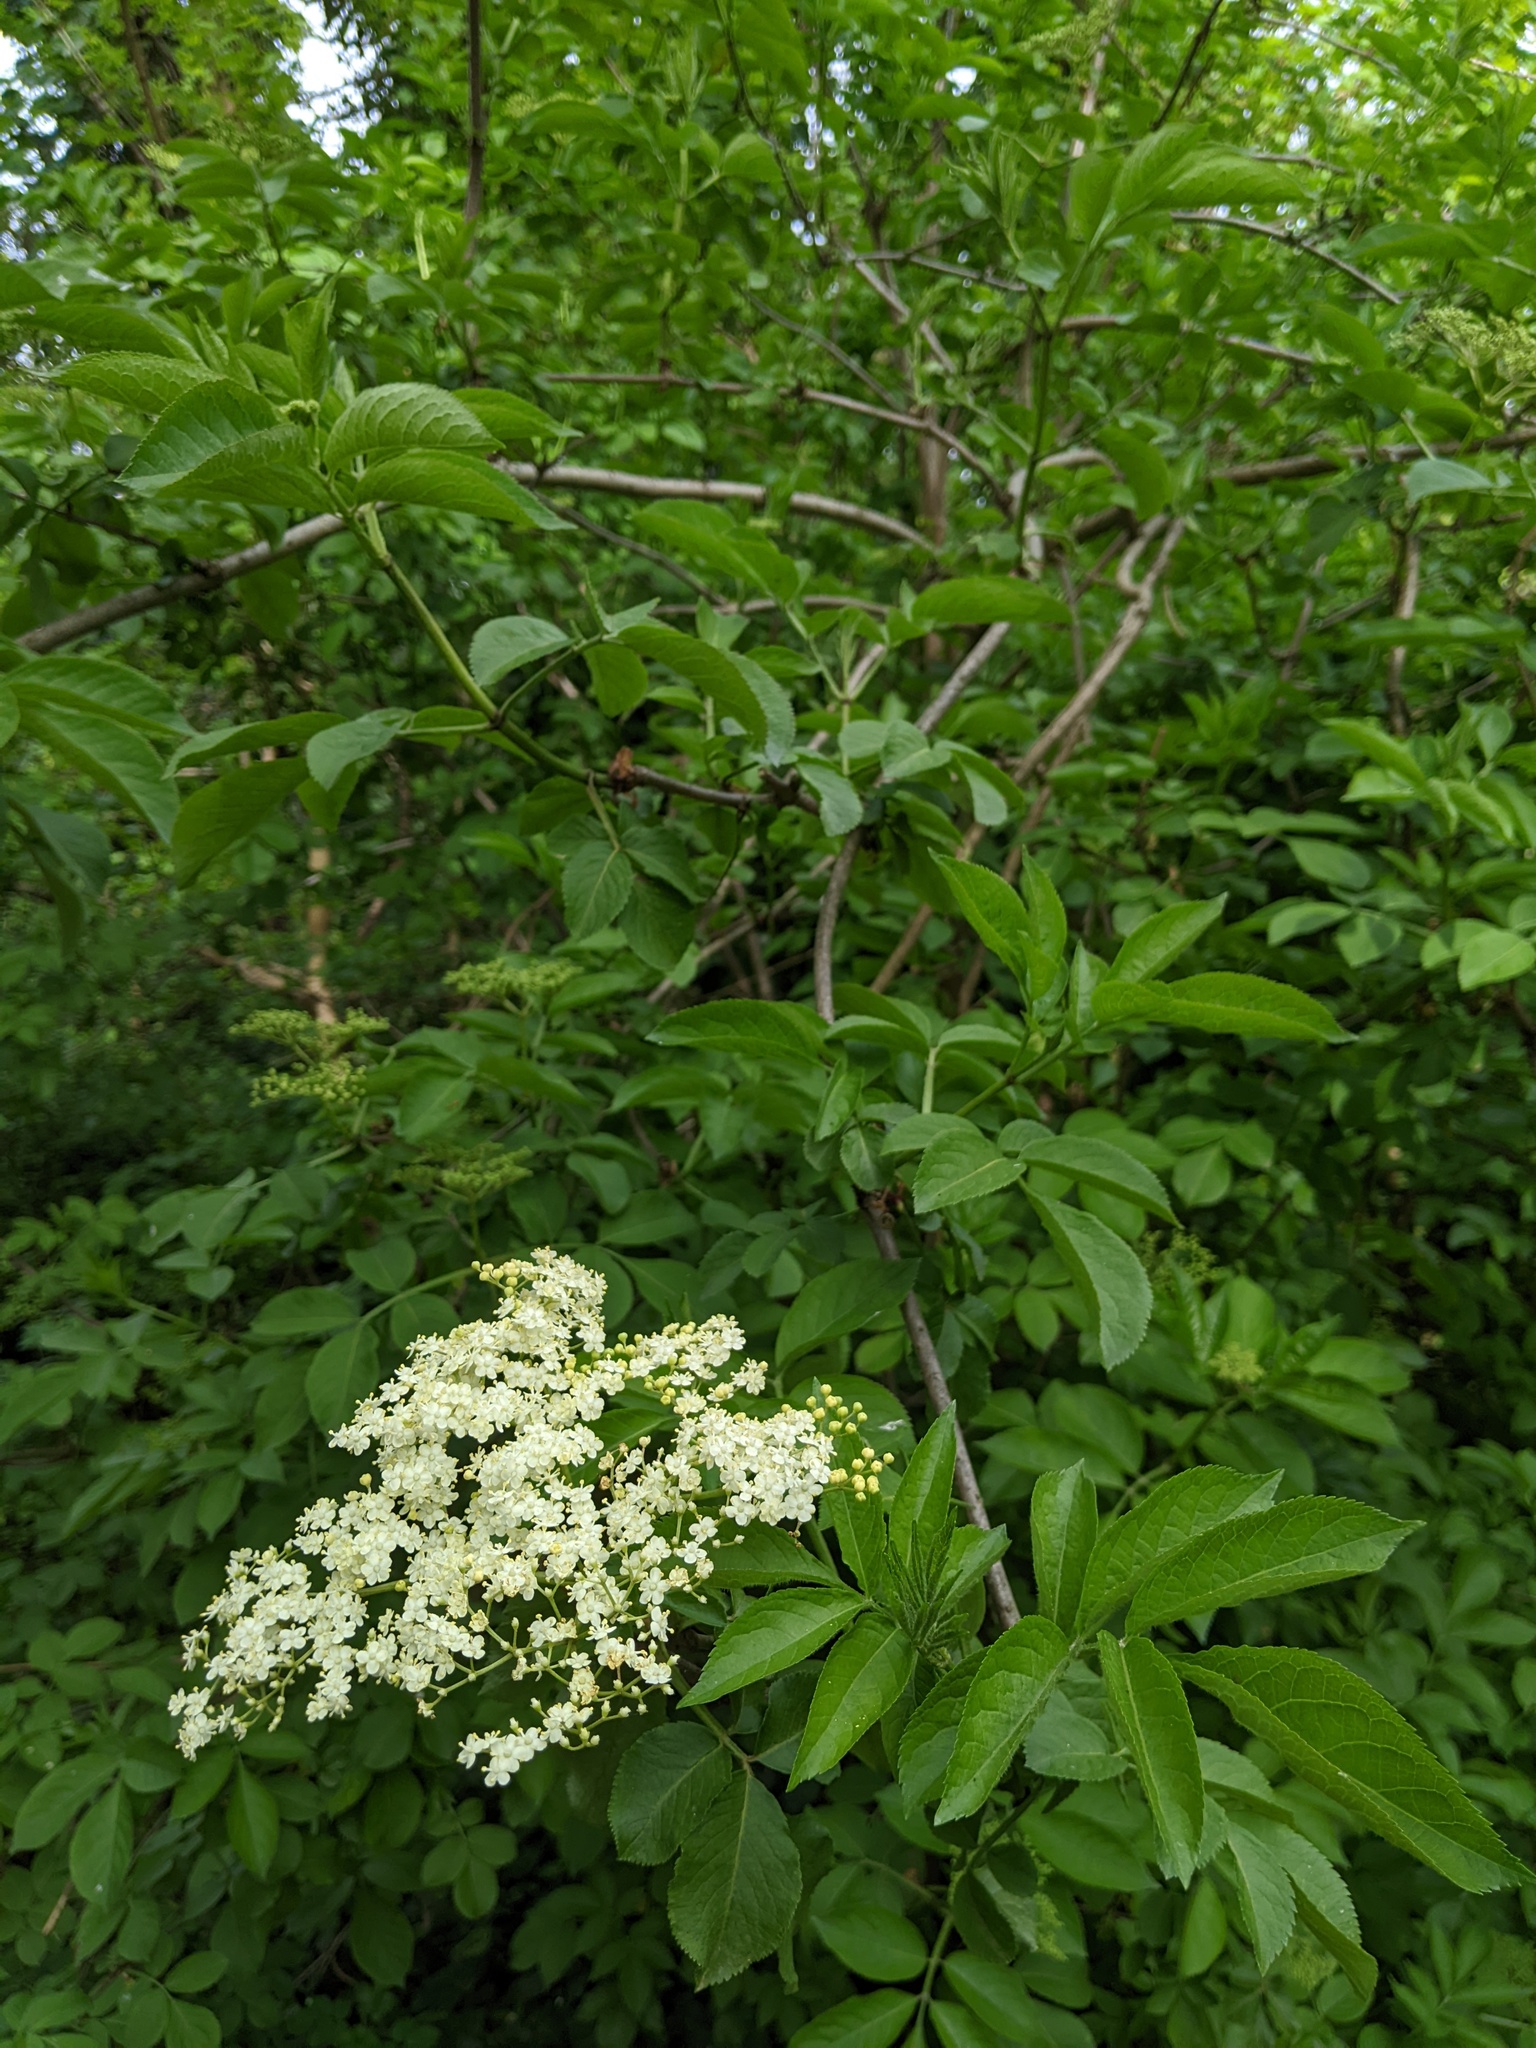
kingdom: Plantae
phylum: Tracheophyta
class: Magnoliopsida
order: Dipsacales
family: Viburnaceae
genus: Sambucus
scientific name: Sambucus nigra
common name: Elder
